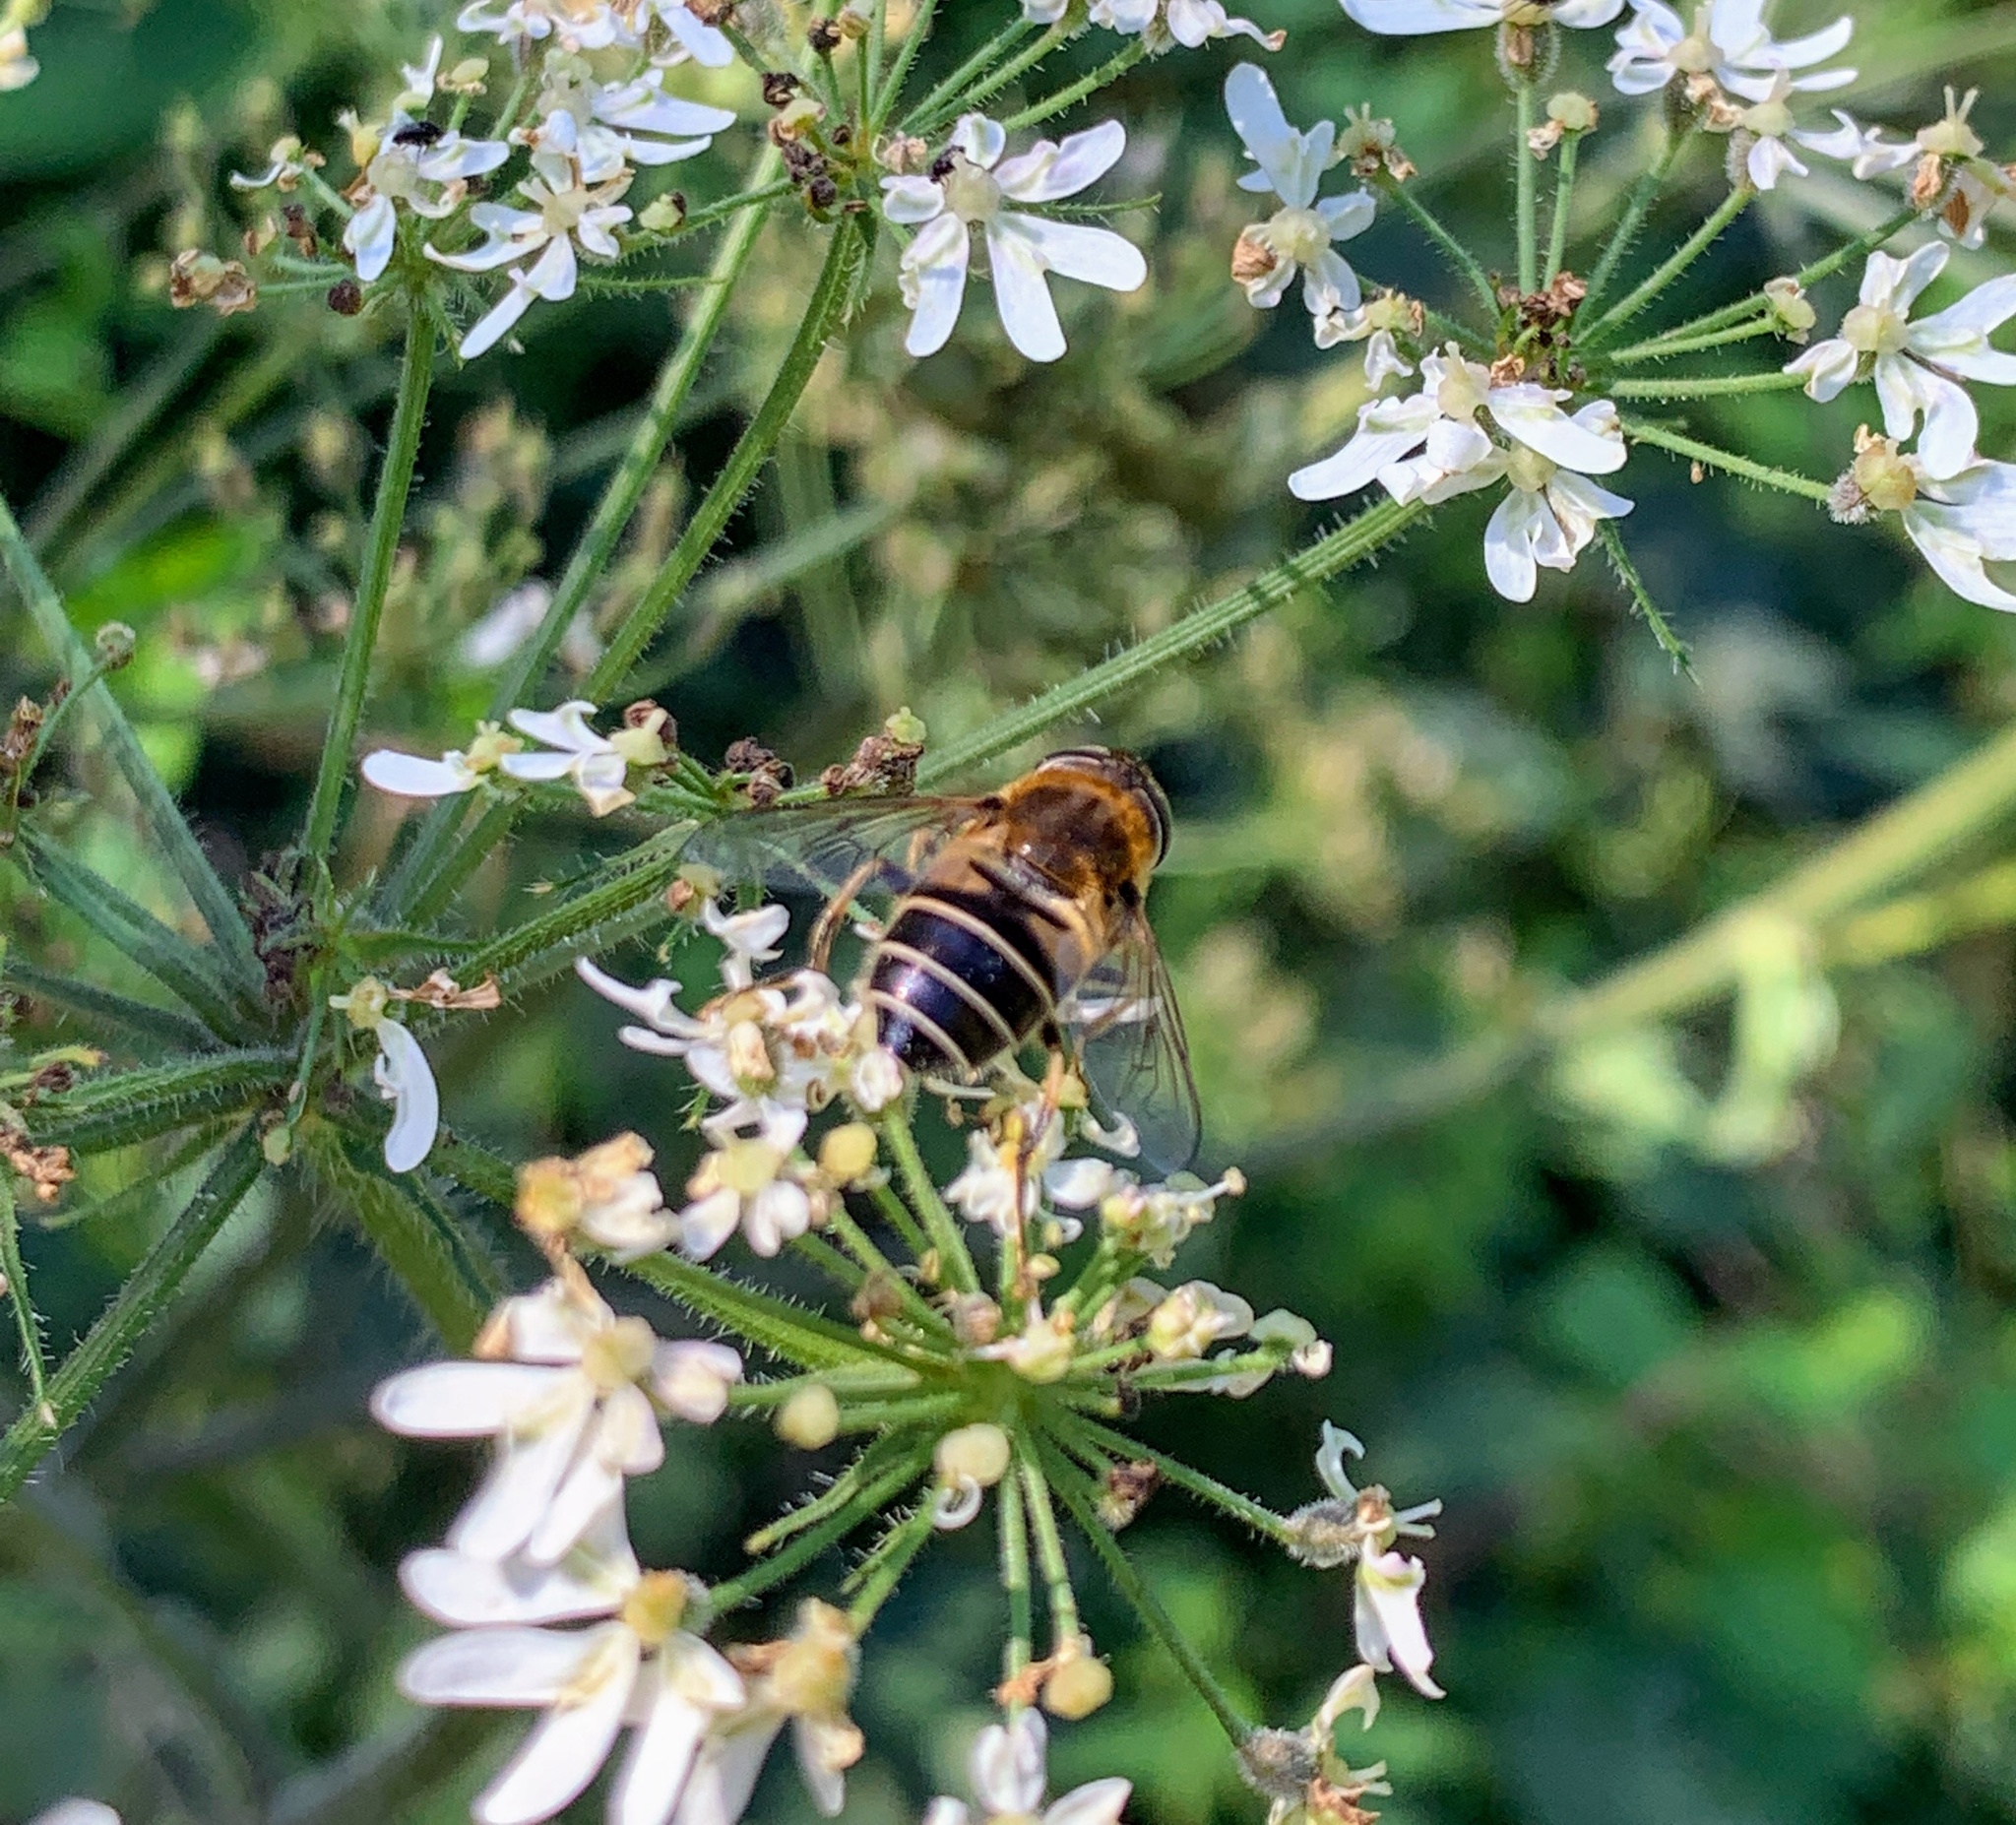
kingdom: Animalia
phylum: Arthropoda
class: Insecta
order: Diptera
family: Syrphidae
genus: Eristalis
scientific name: Eristalis nemorum
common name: Orange-spined drone fly
